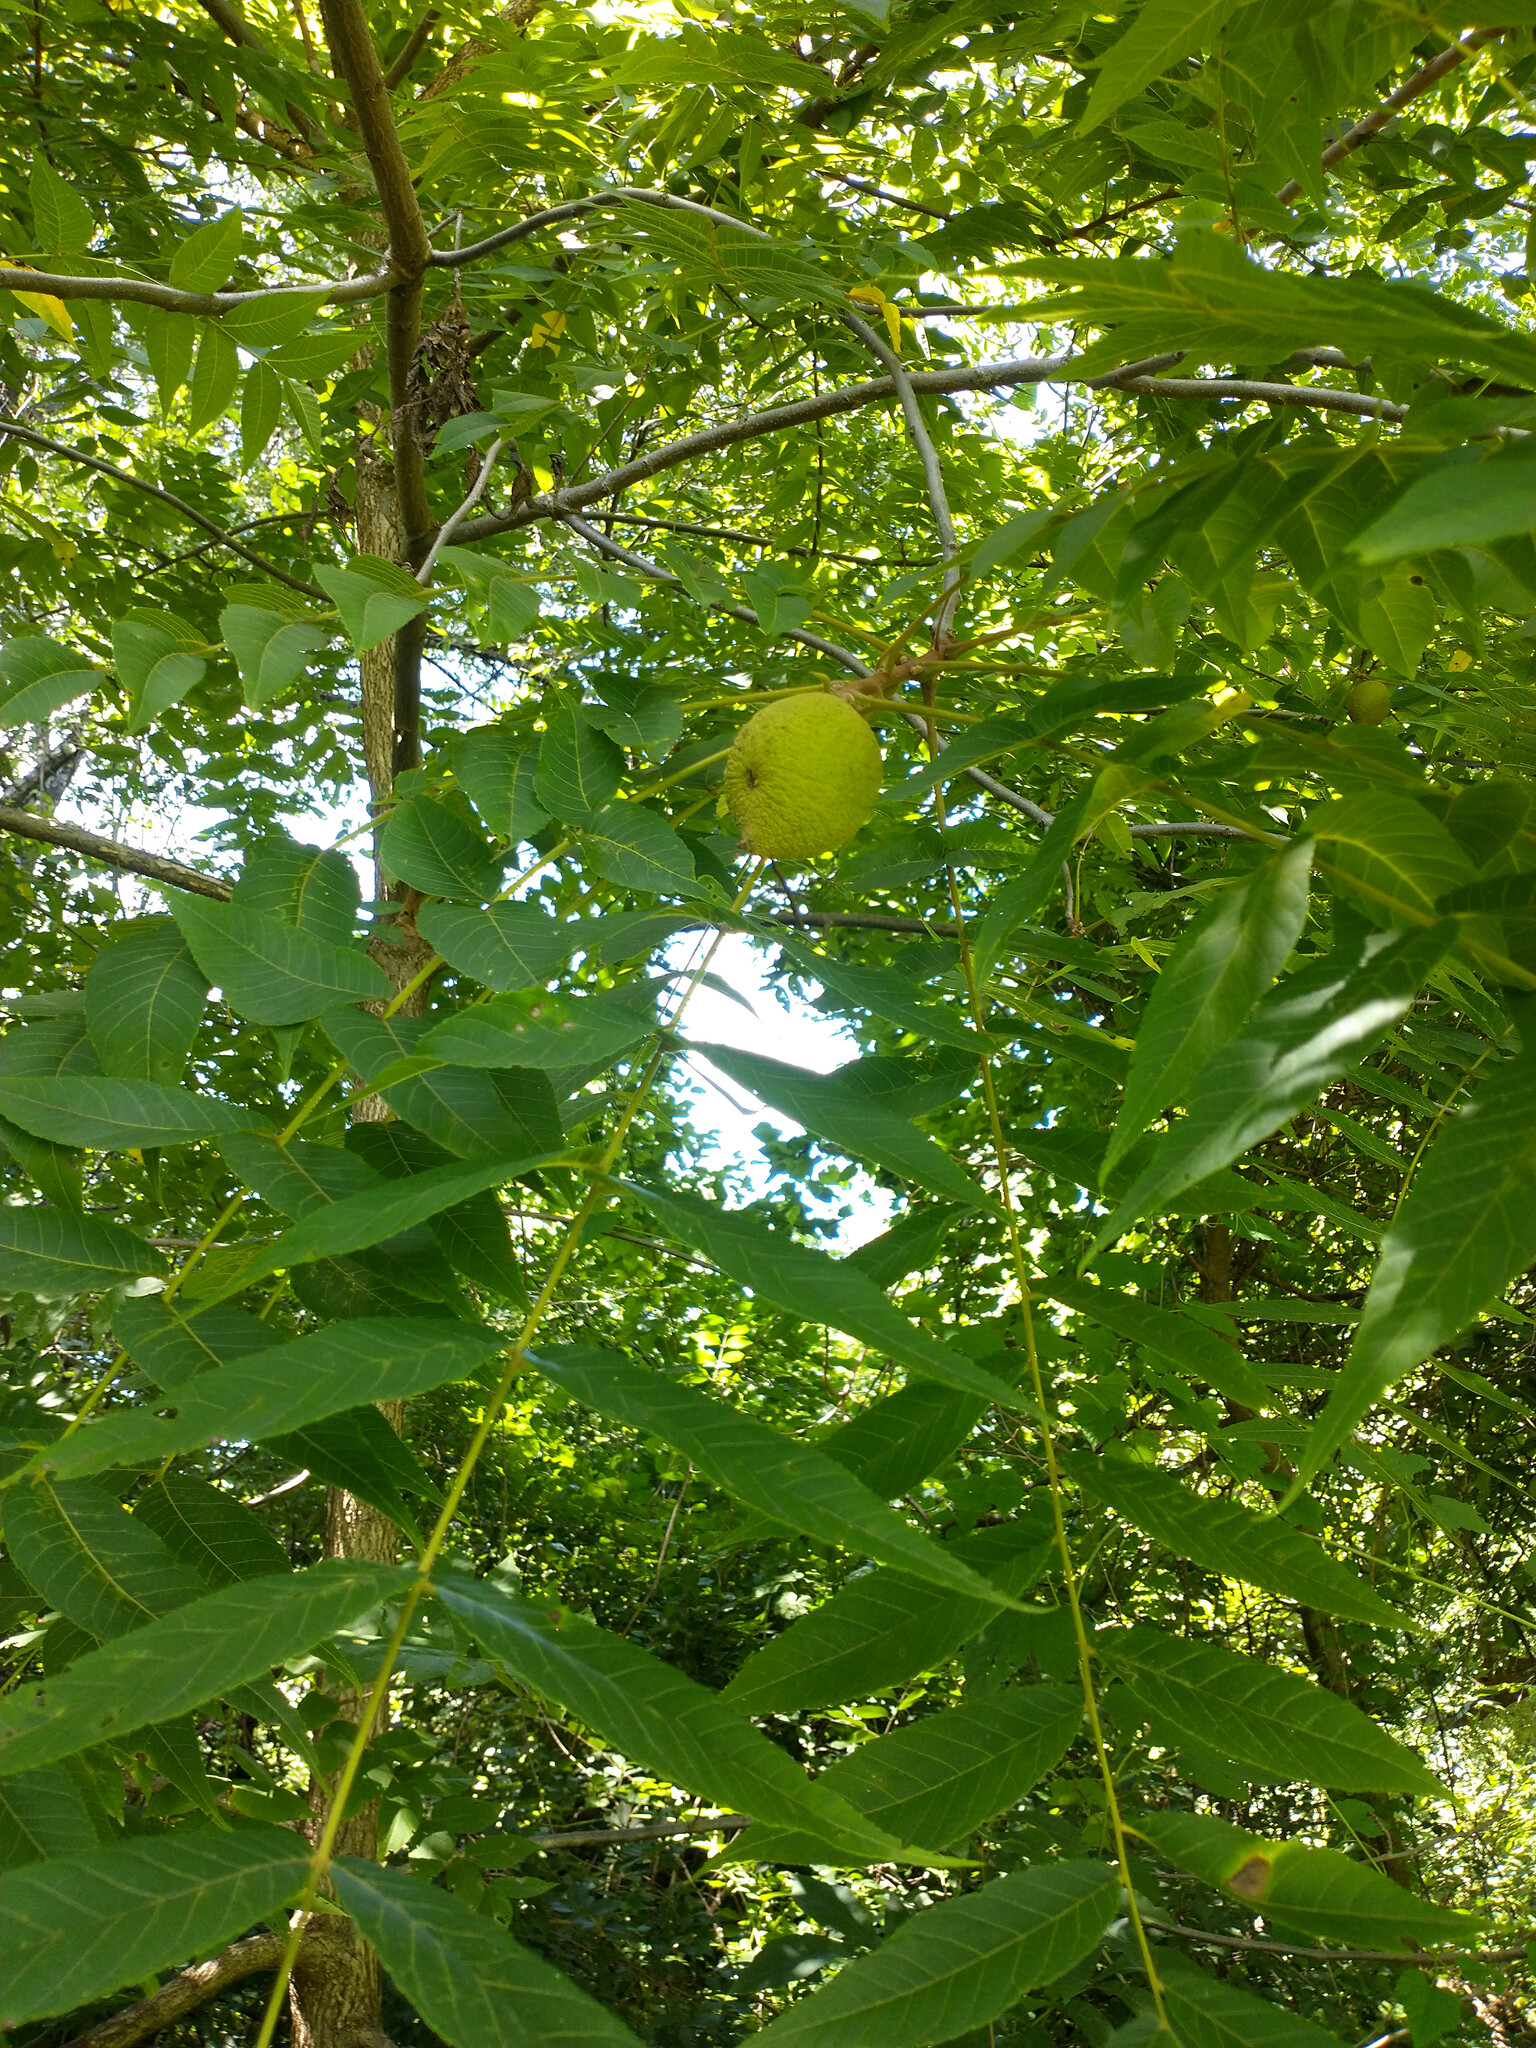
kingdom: Plantae
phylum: Tracheophyta
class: Magnoliopsida
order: Fagales
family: Juglandaceae
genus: Juglans
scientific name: Juglans nigra
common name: Black walnut
